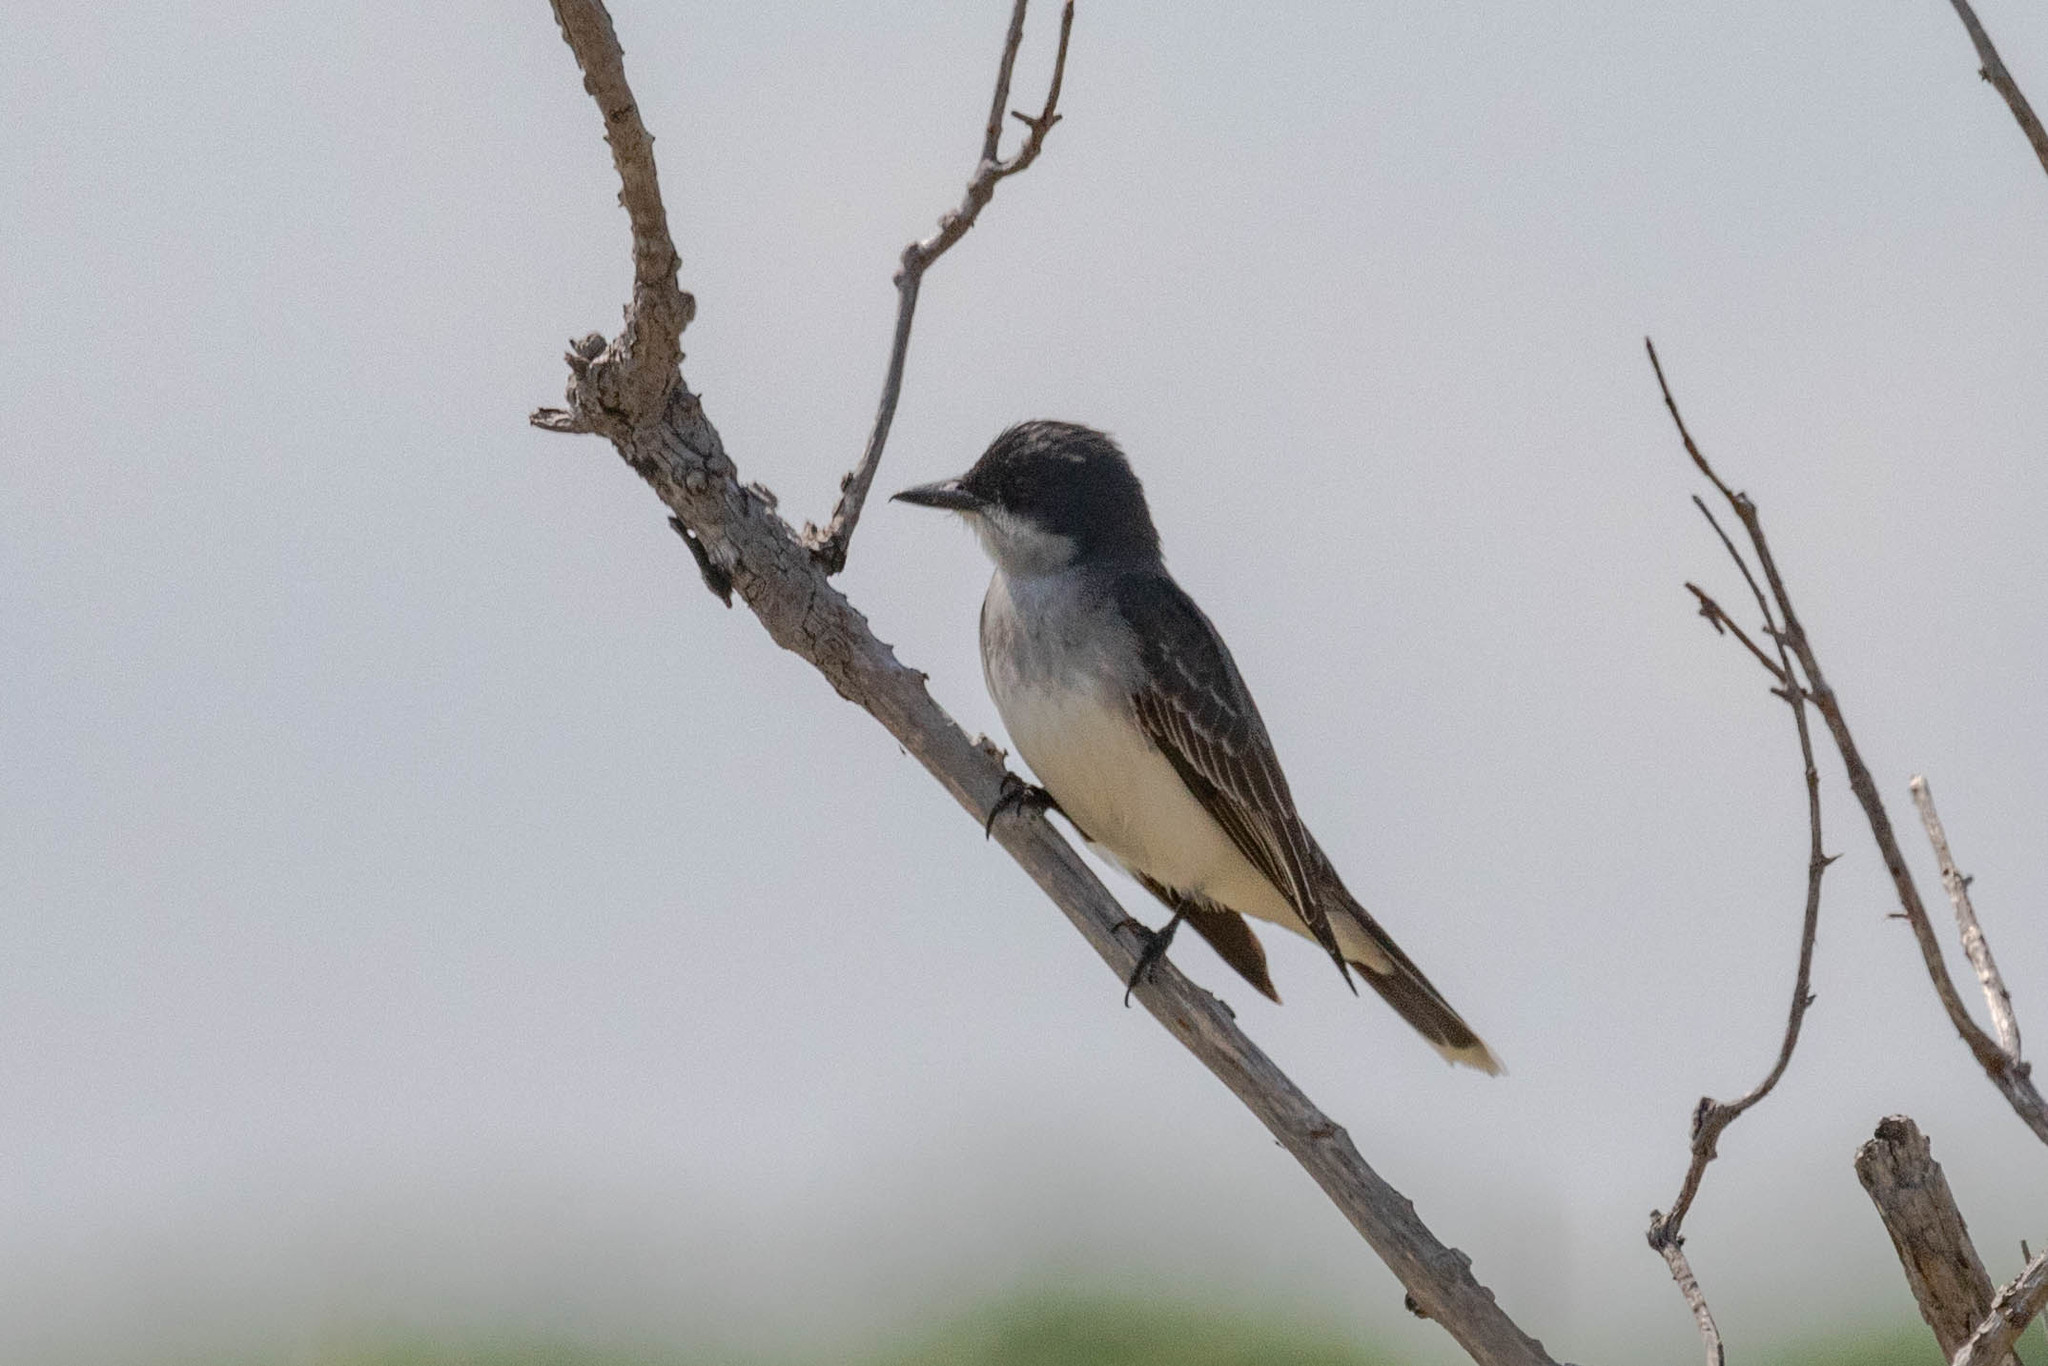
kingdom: Animalia
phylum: Chordata
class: Aves
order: Passeriformes
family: Tyrannidae
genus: Tyrannus
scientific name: Tyrannus tyrannus
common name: Eastern kingbird
